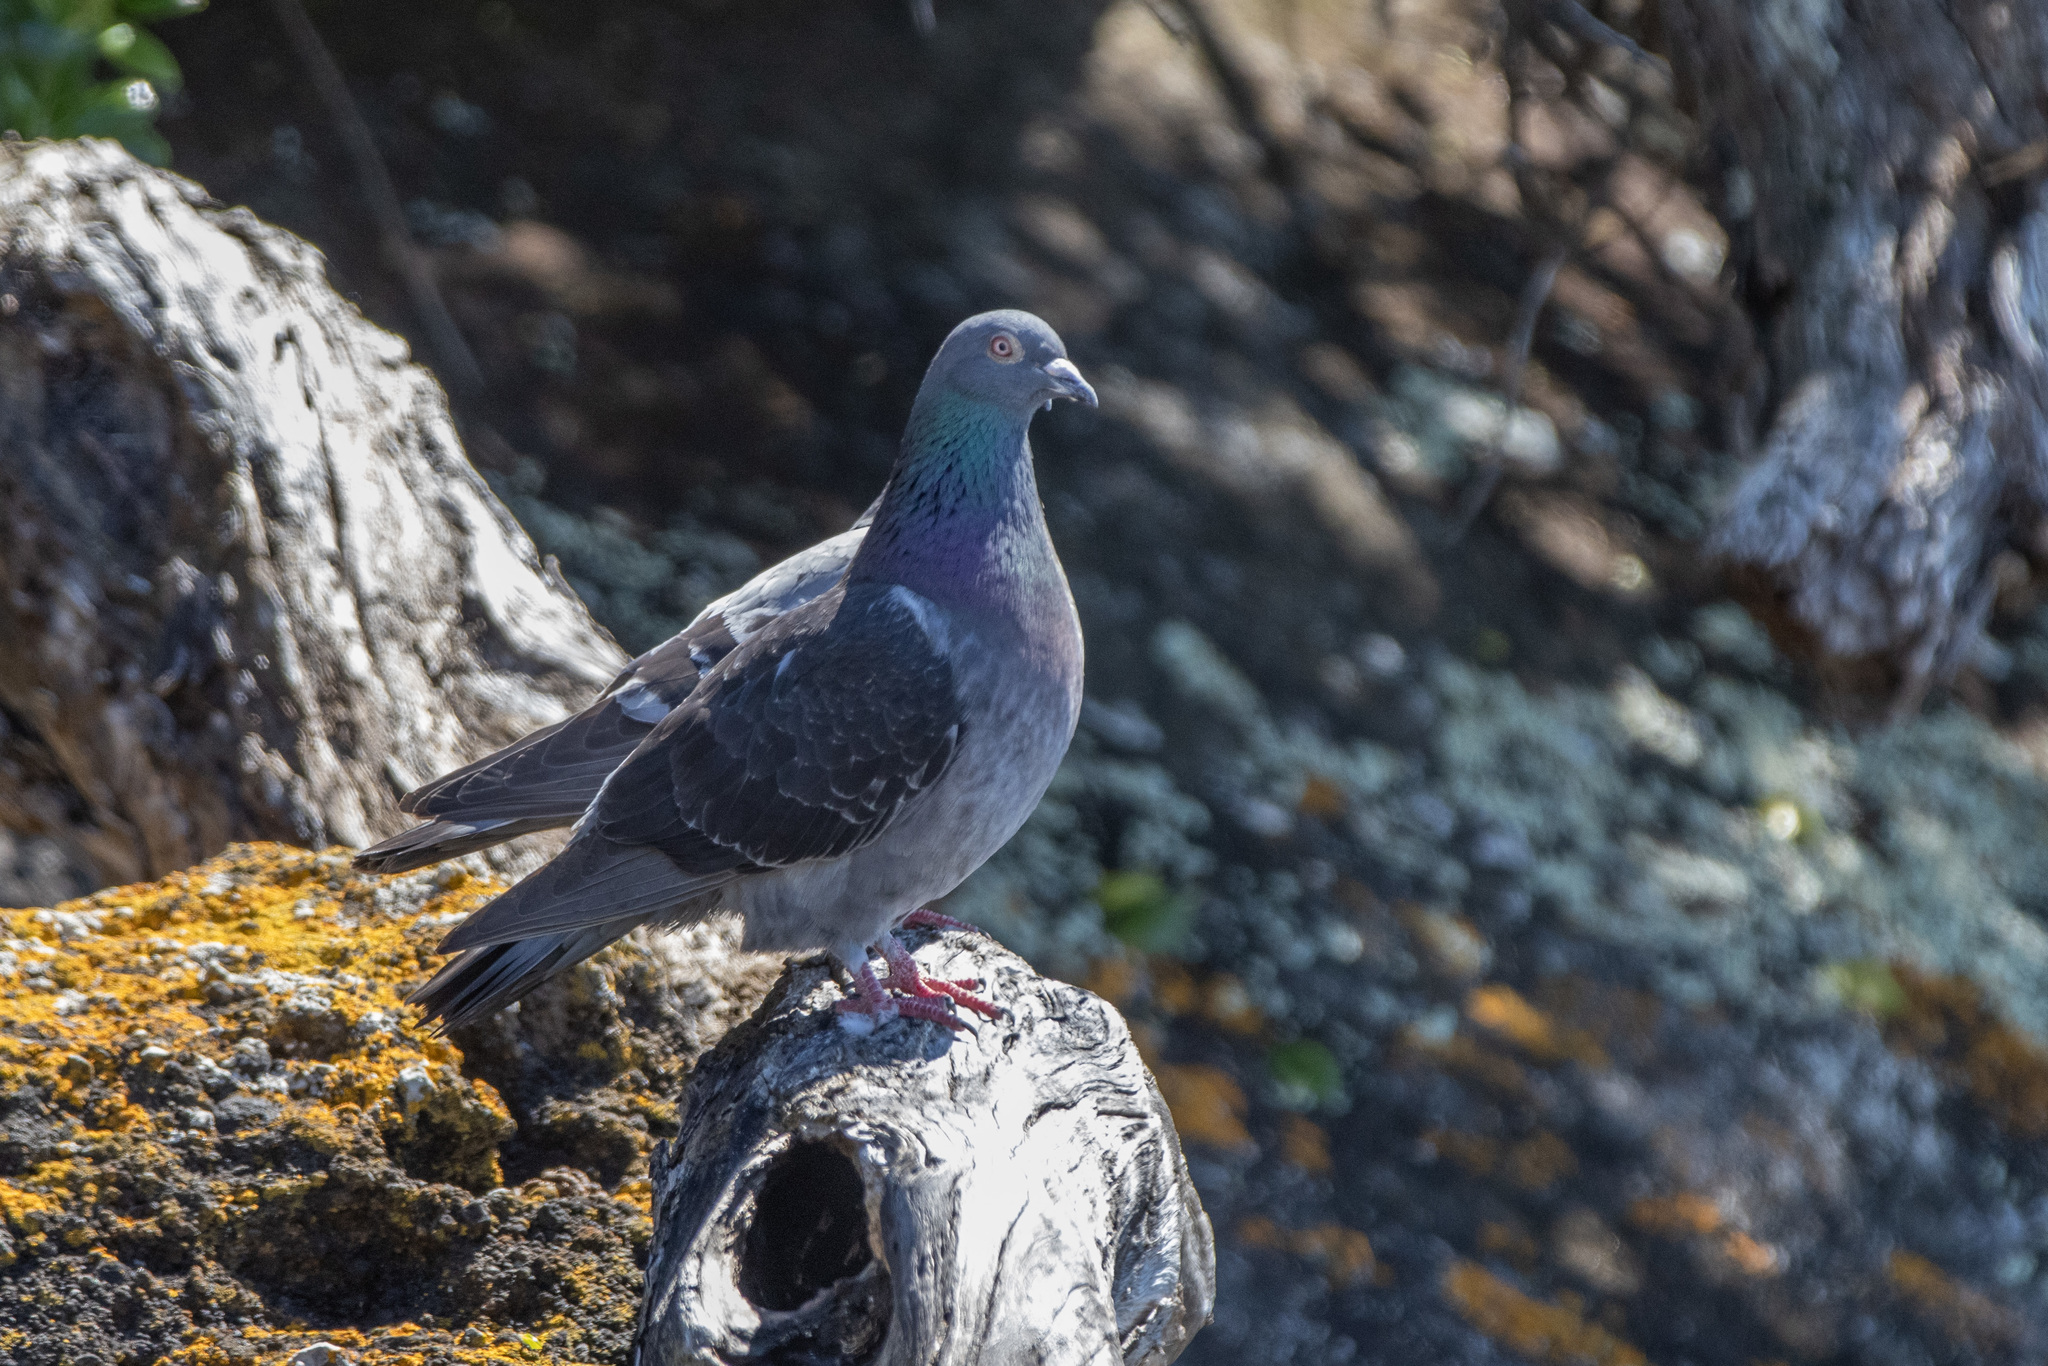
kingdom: Animalia
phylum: Chordata
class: Aves
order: Columbiformes
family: Columbidae
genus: Columba
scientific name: Columba livia
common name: Rock pigeon
